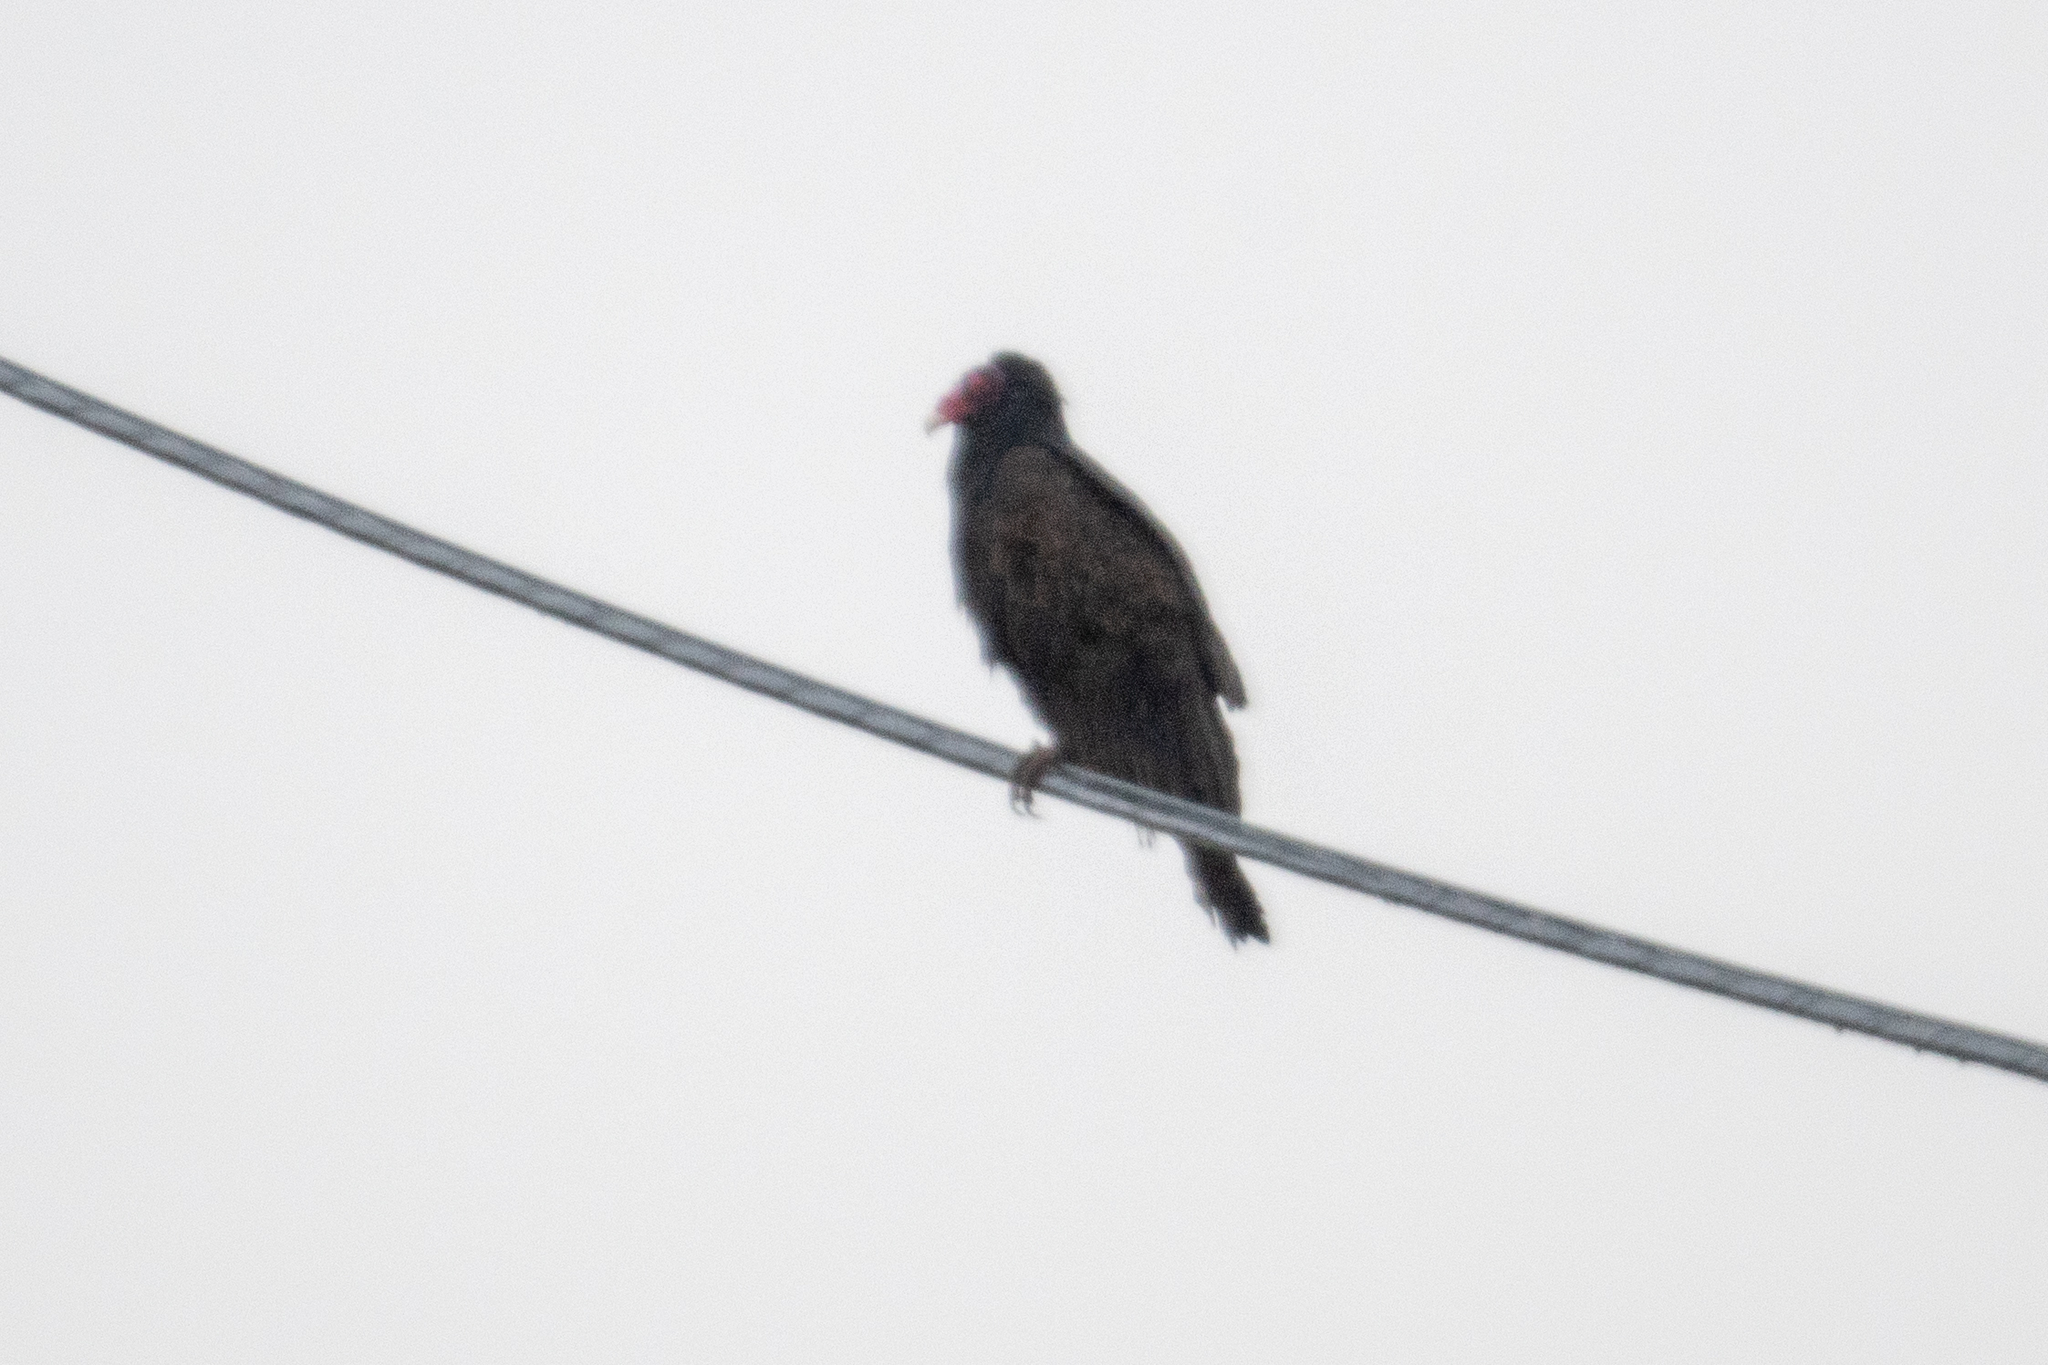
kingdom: Animalia
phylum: Chordata
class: Aves
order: Accipitriformes
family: Cathartidae
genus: Cathartes
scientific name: Cathartes aura
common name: Turkey vulture
